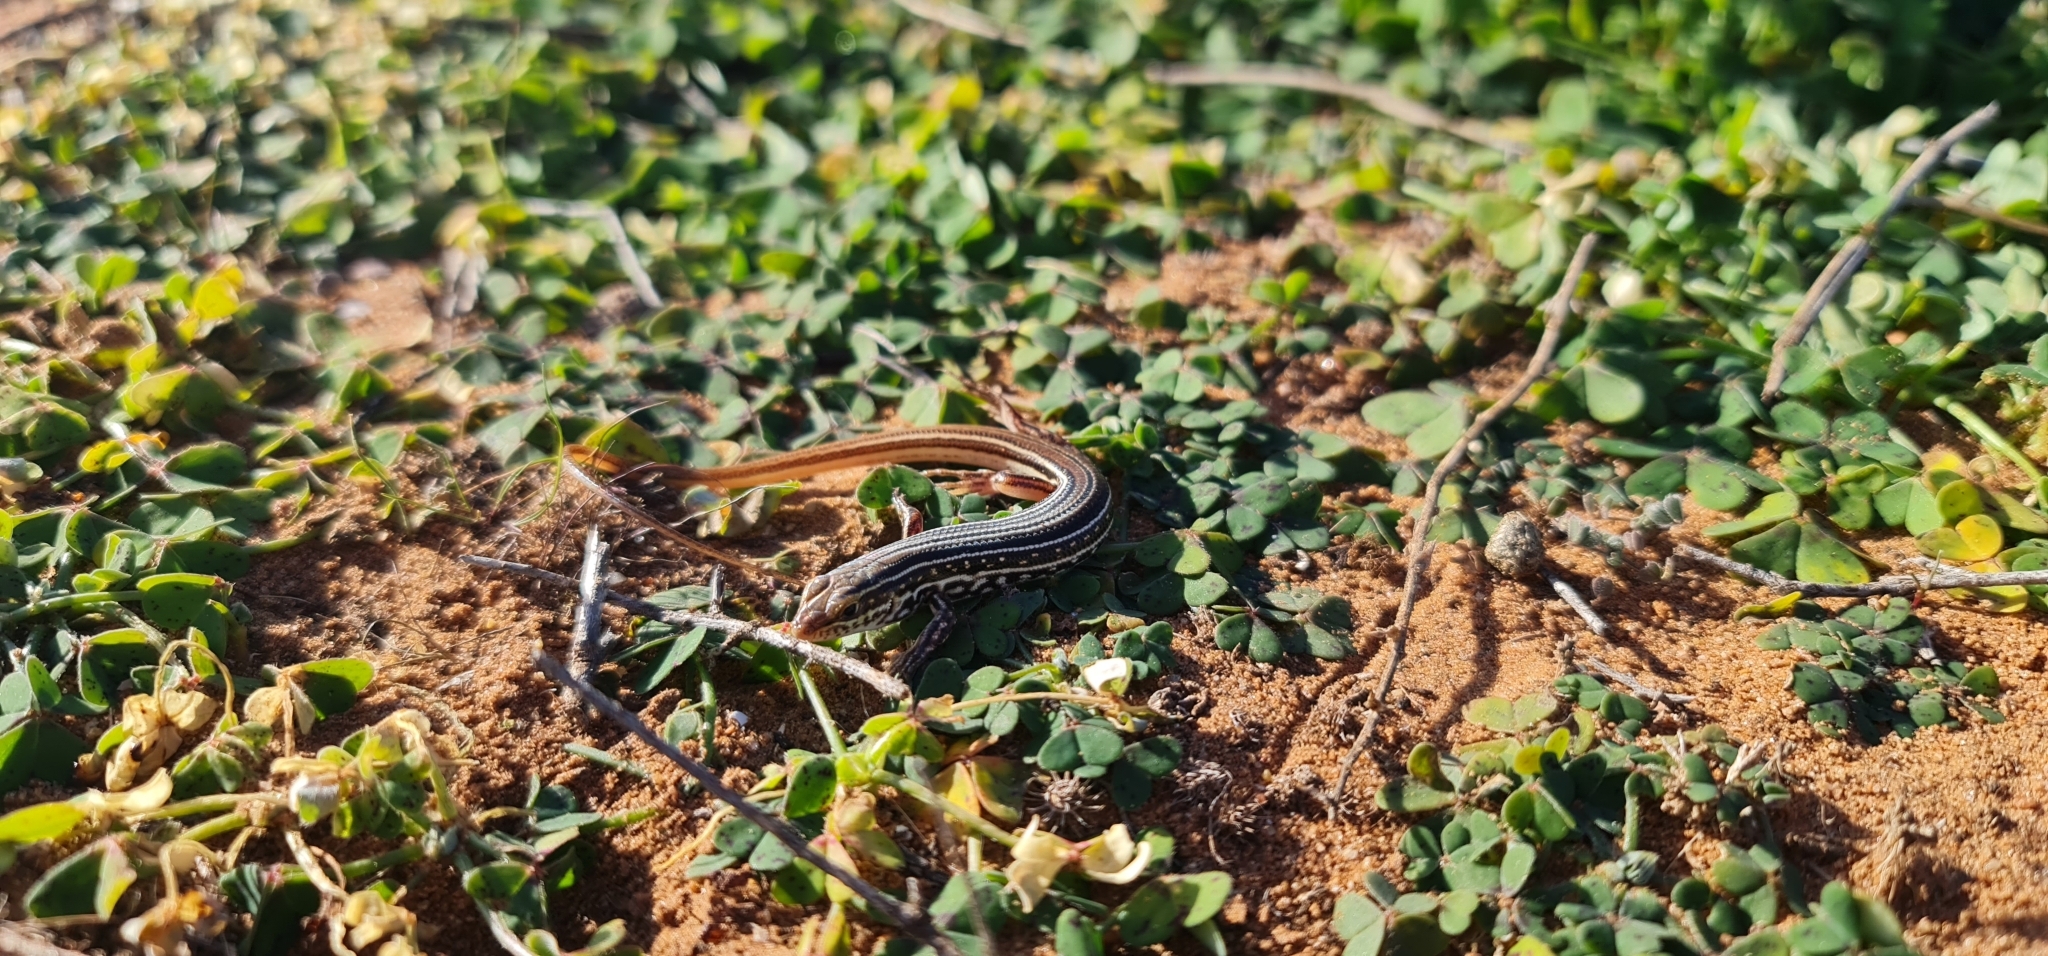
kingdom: Animalia
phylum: Chordata
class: Squamata
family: Scincidae
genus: Ctenotus
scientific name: Ctenotus regius
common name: Pale-rumped ctenotus
